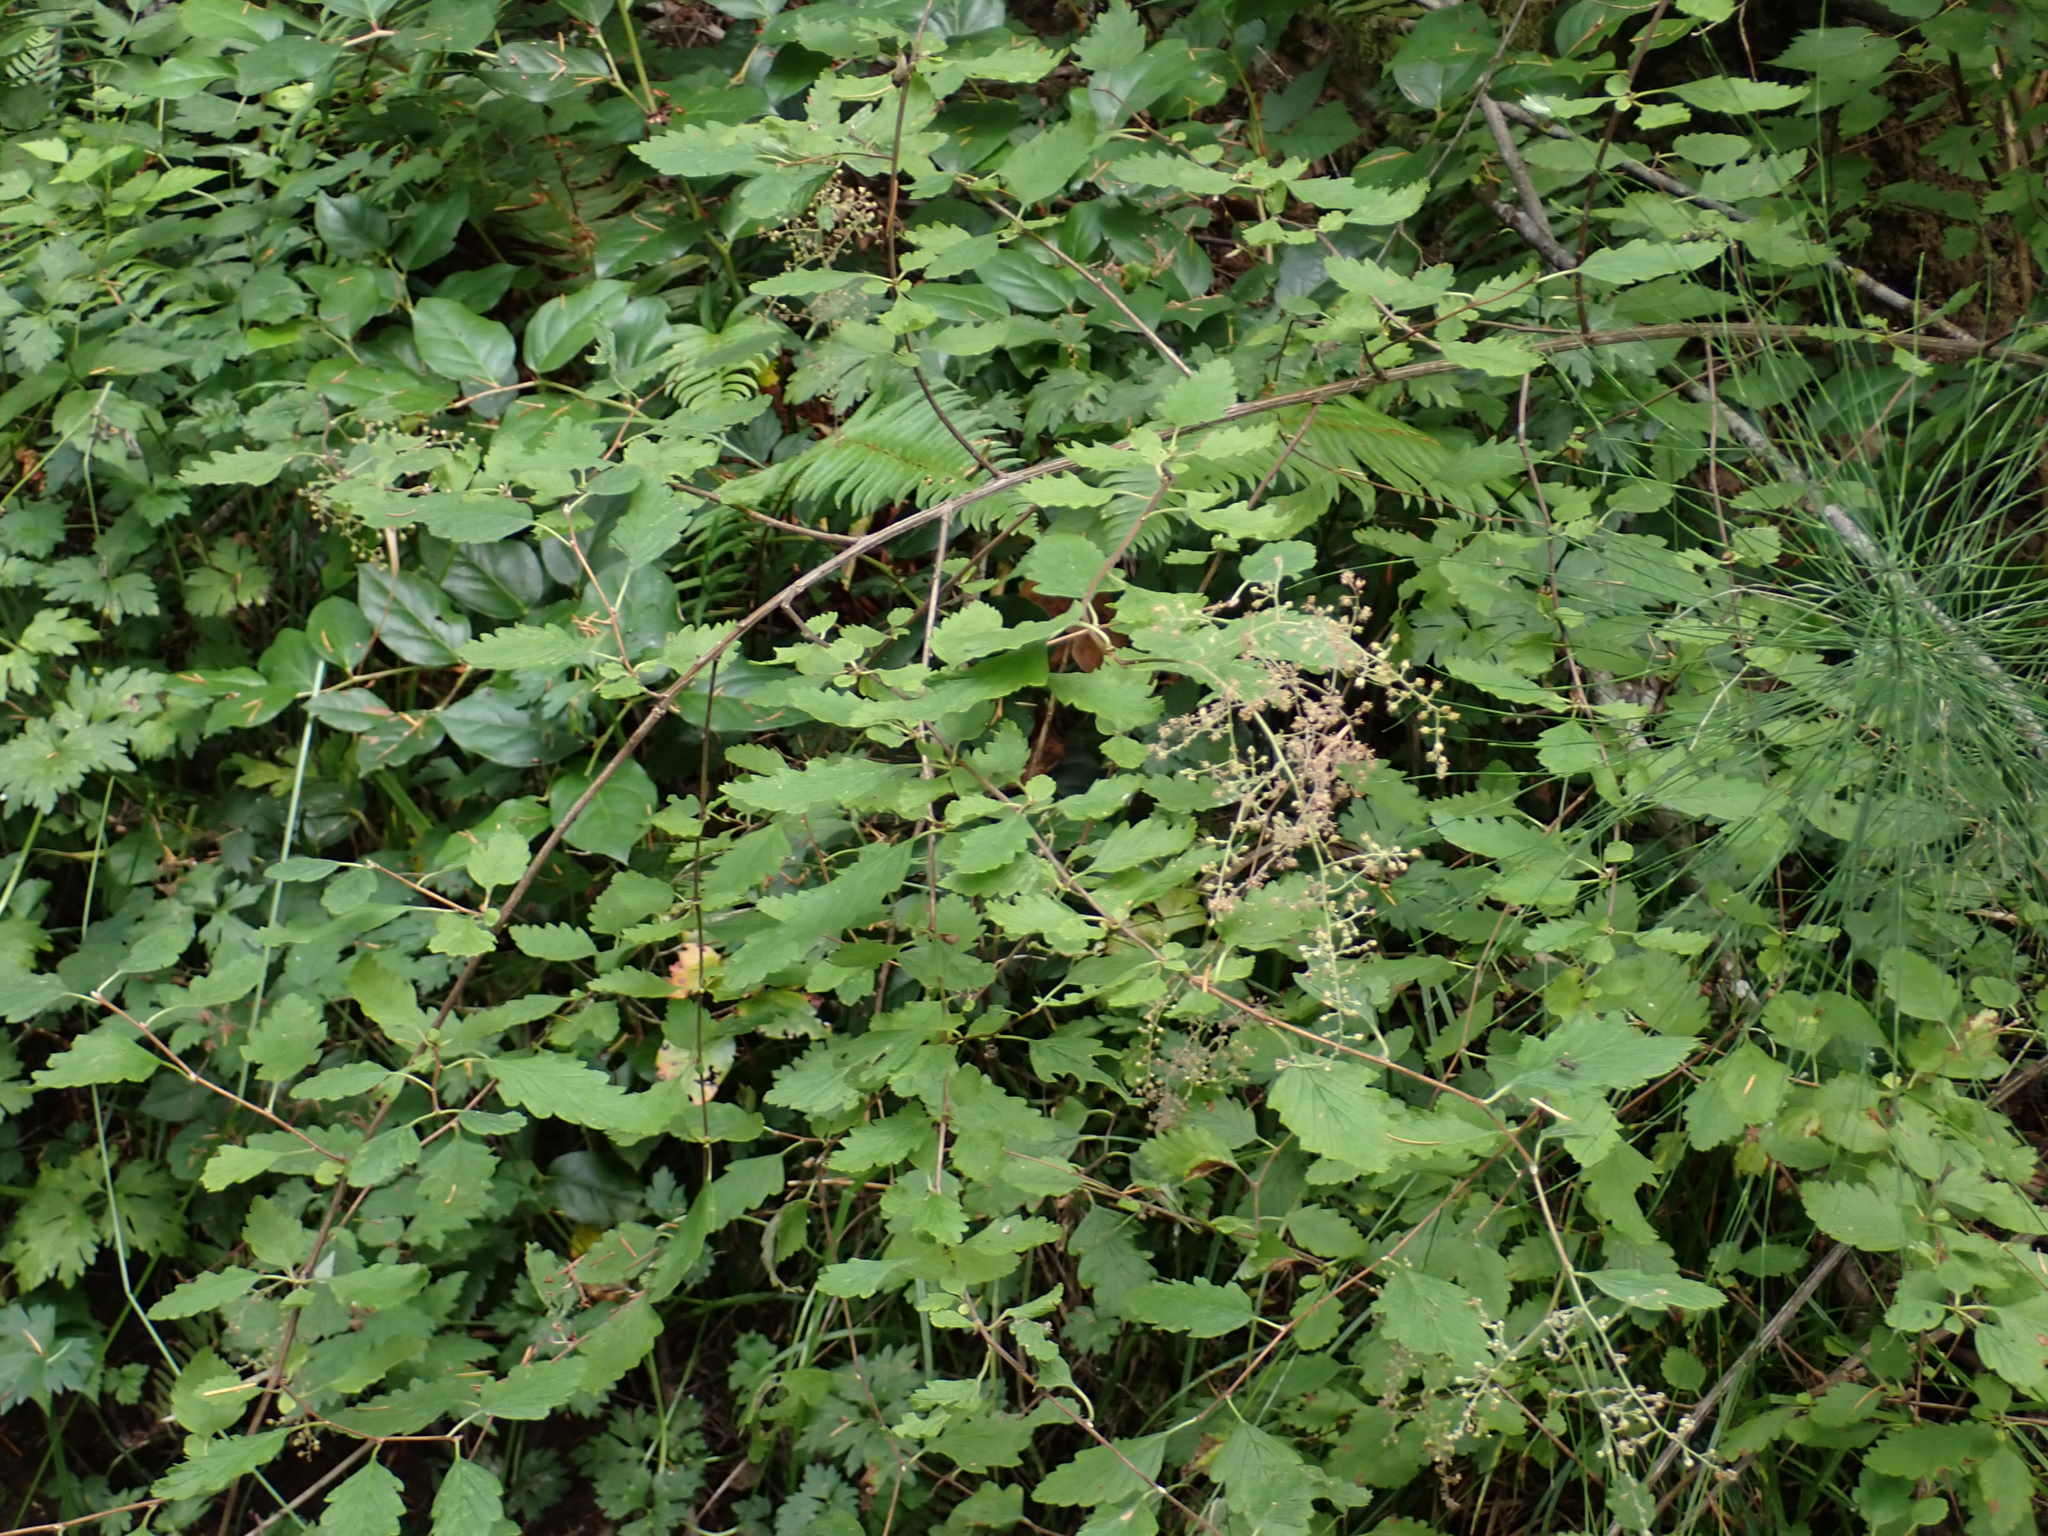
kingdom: Plantae
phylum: Tracheophyta
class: Magnoliopsida
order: Rosales
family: Rosaceae
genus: Holodiscus
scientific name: Holodiscus discolor
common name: Oceanspray
